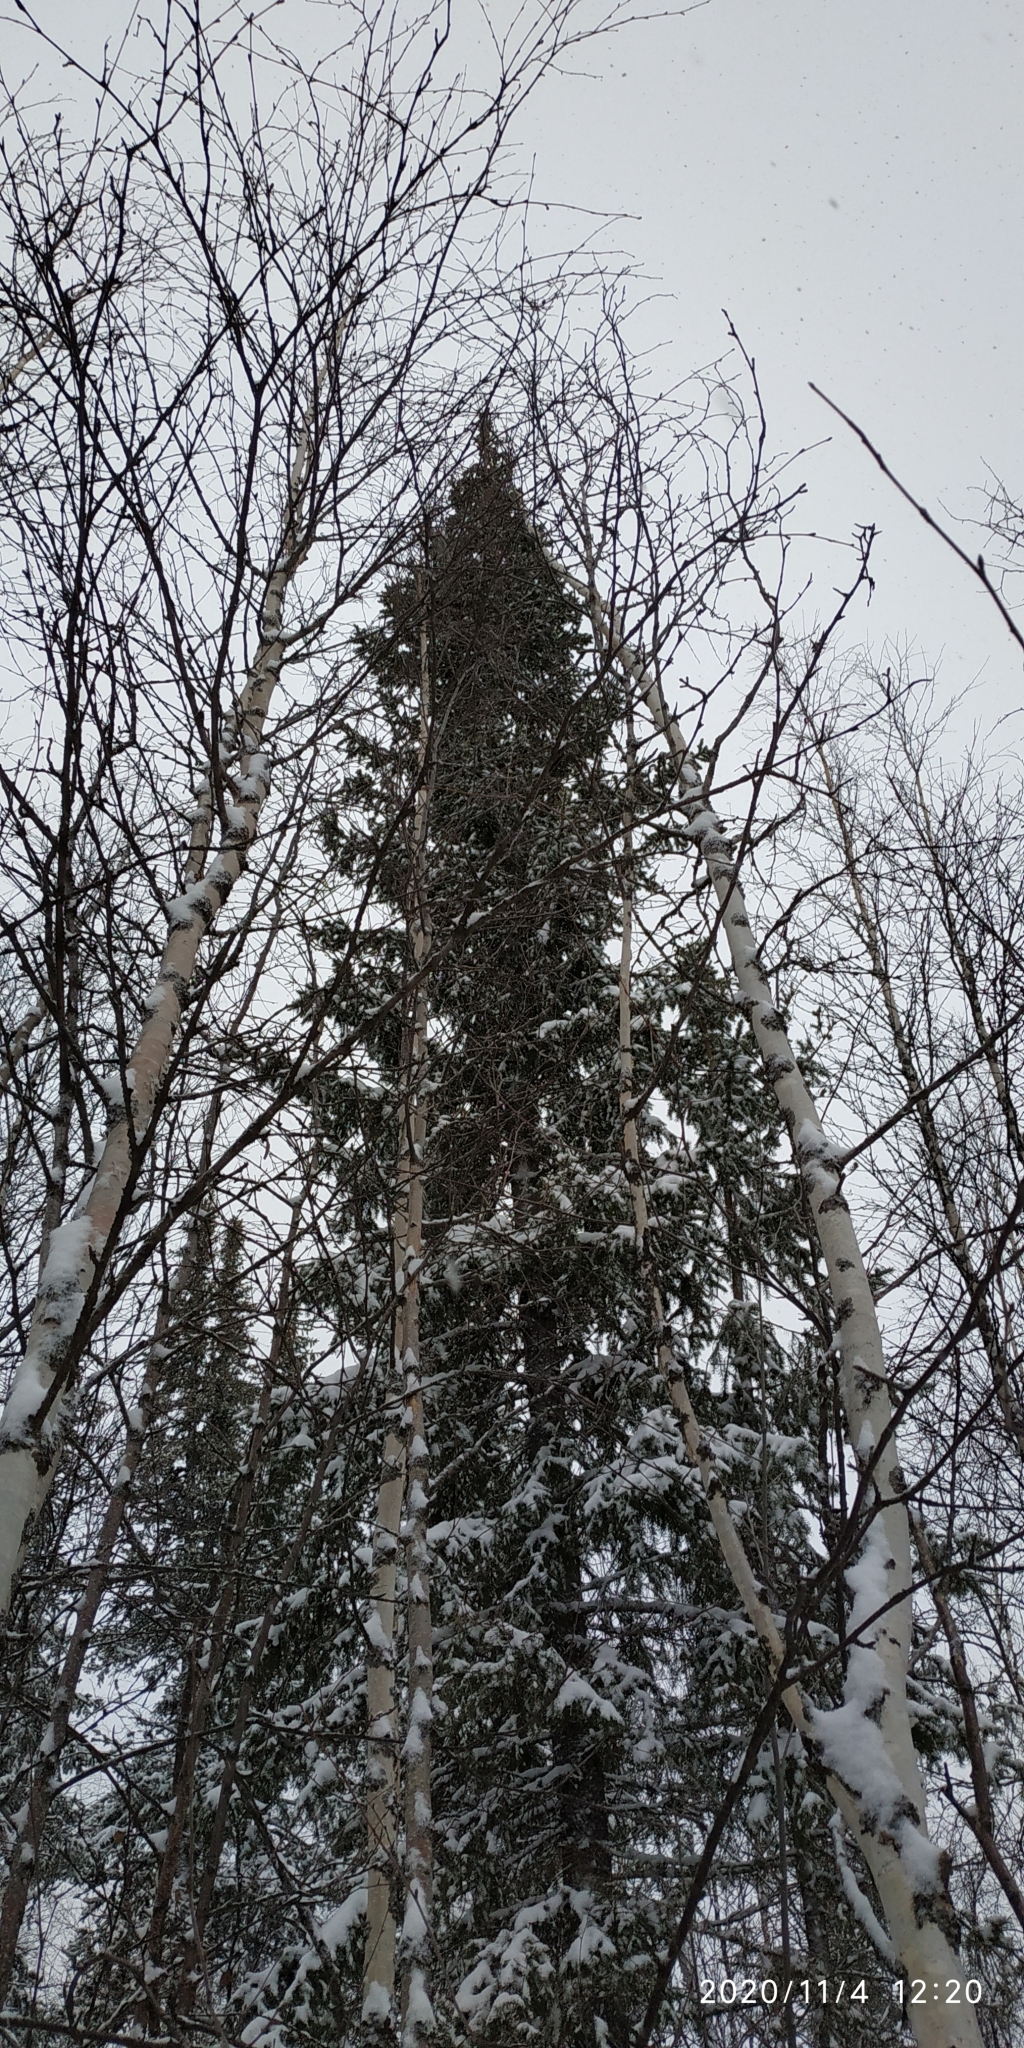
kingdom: Plantae
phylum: Tracheophyta
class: Pinopsida
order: Pinales
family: Pinaceae
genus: Picea
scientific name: Picea obovata
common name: Siberian spruce
